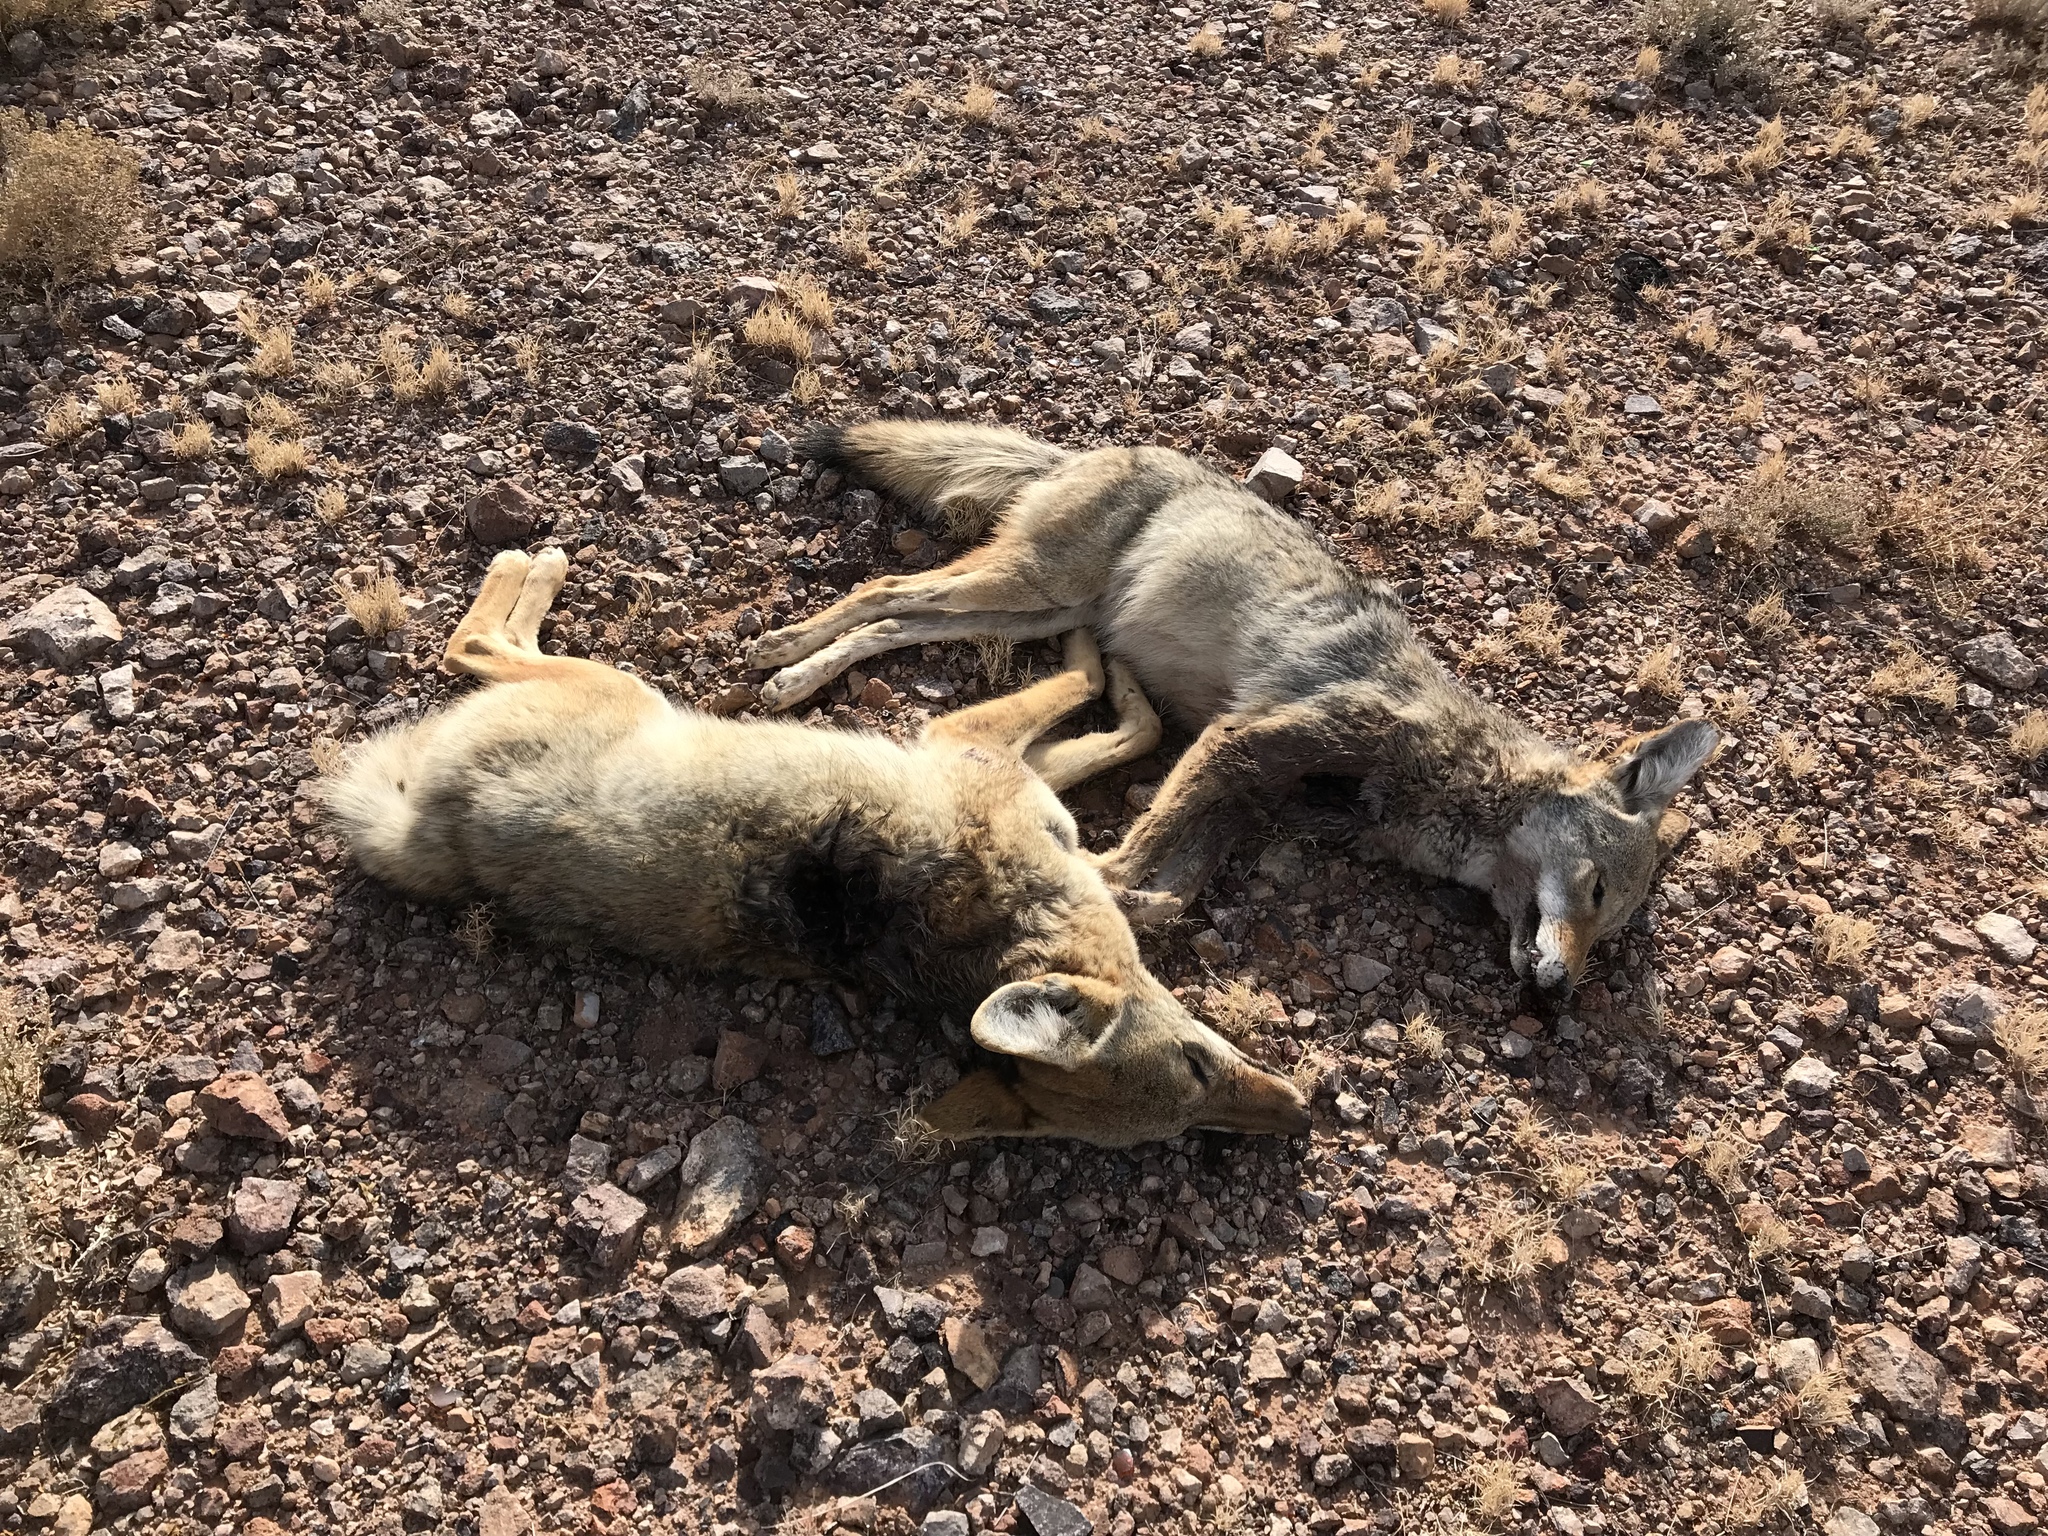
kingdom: Animalia
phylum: Chordata
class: Mammalia
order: Carnivora
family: Canidae
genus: Canis
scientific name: Canis latrans
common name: Coyote
